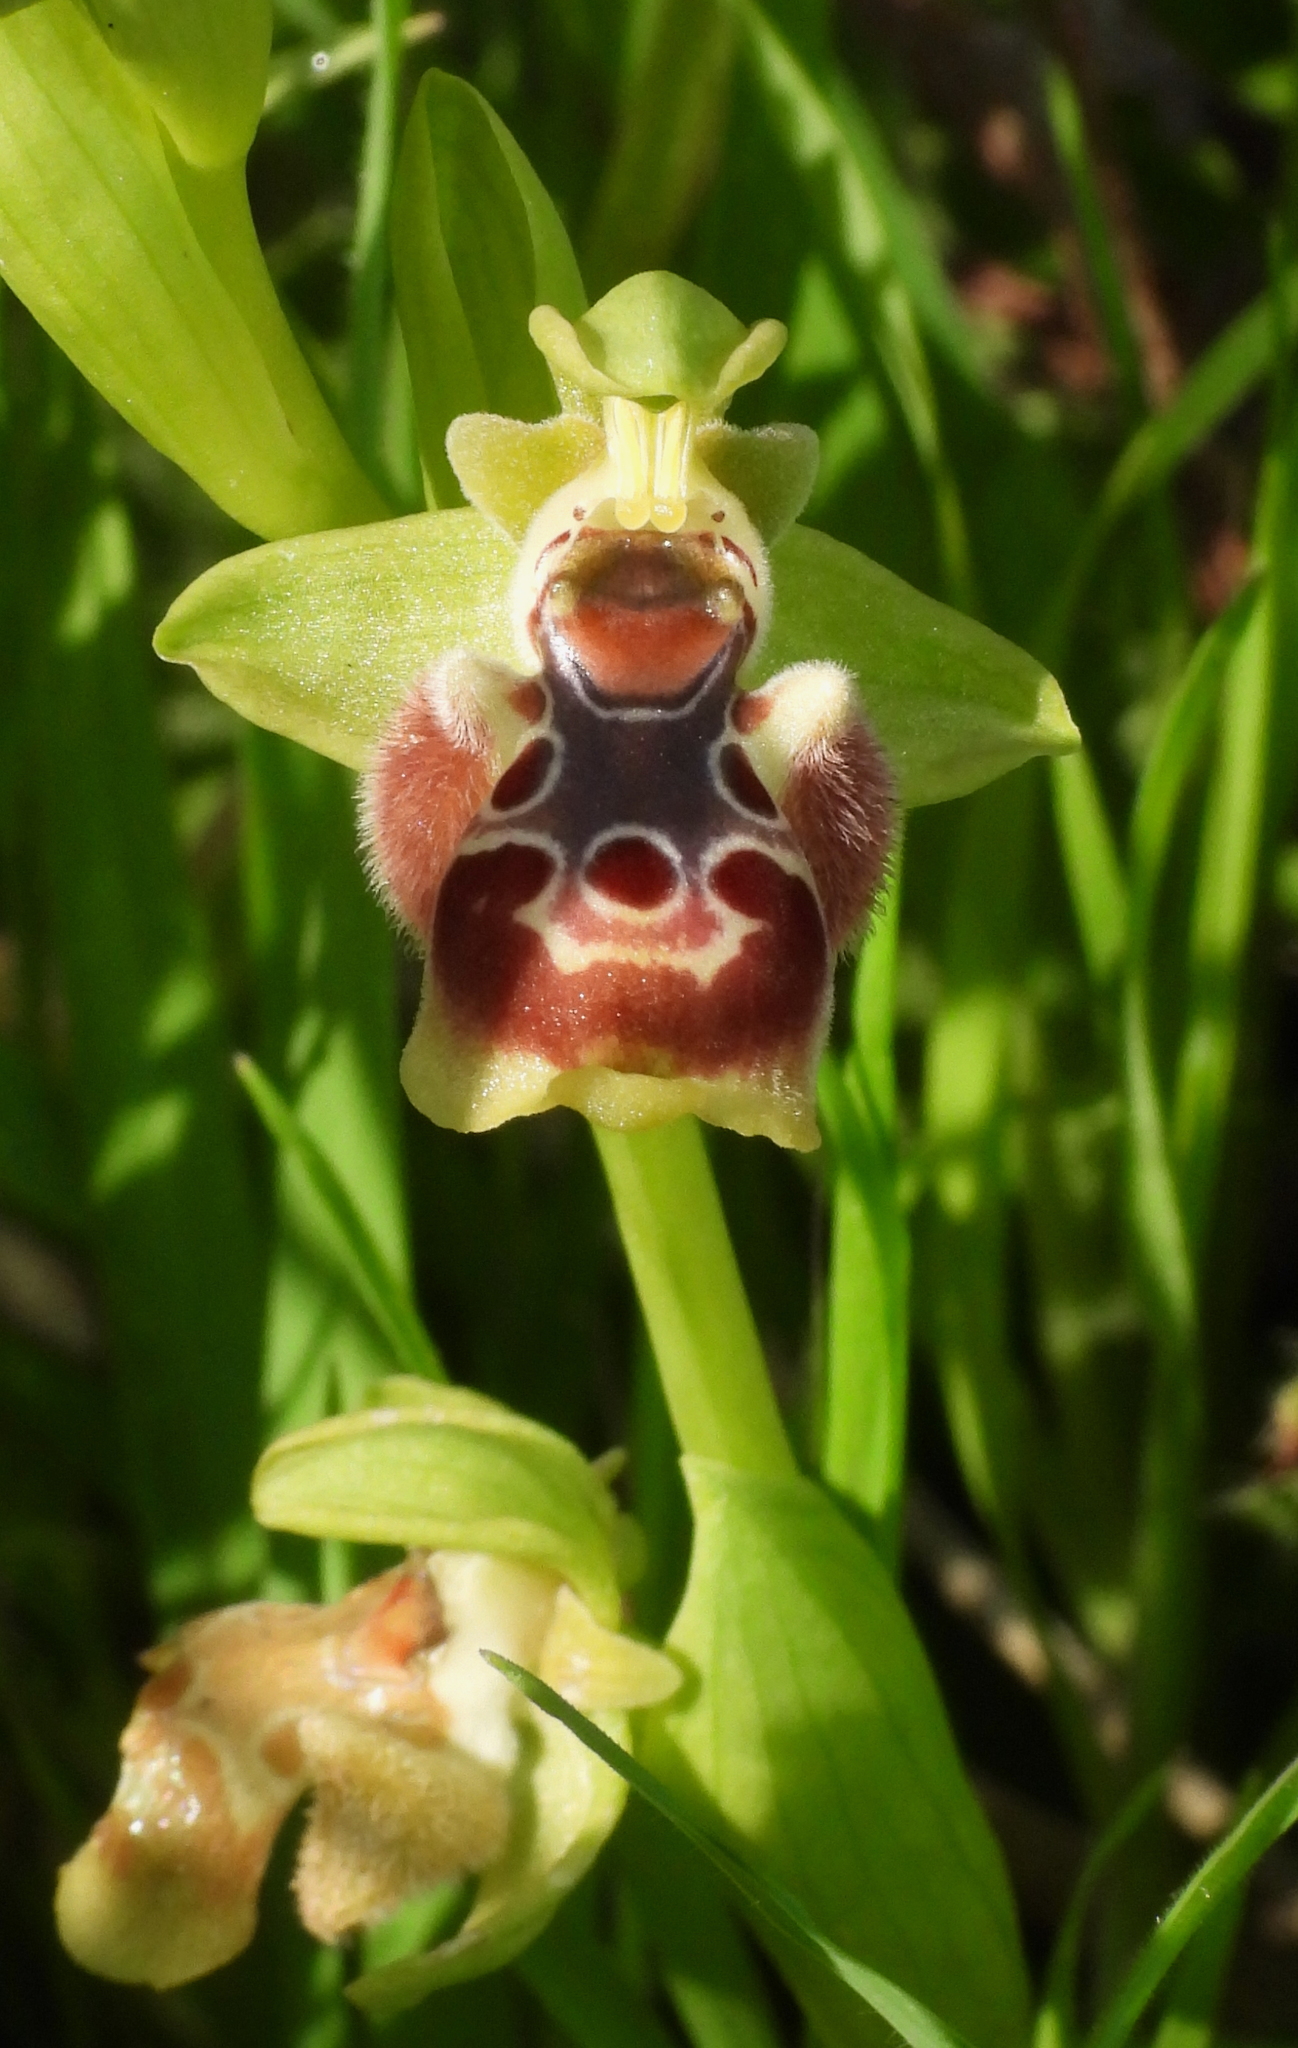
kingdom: Plantae
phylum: Tracheophyta
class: Liliopsida
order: Asparagales
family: Orchidaceae
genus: Ophrys
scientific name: Ophrys umbilicata
